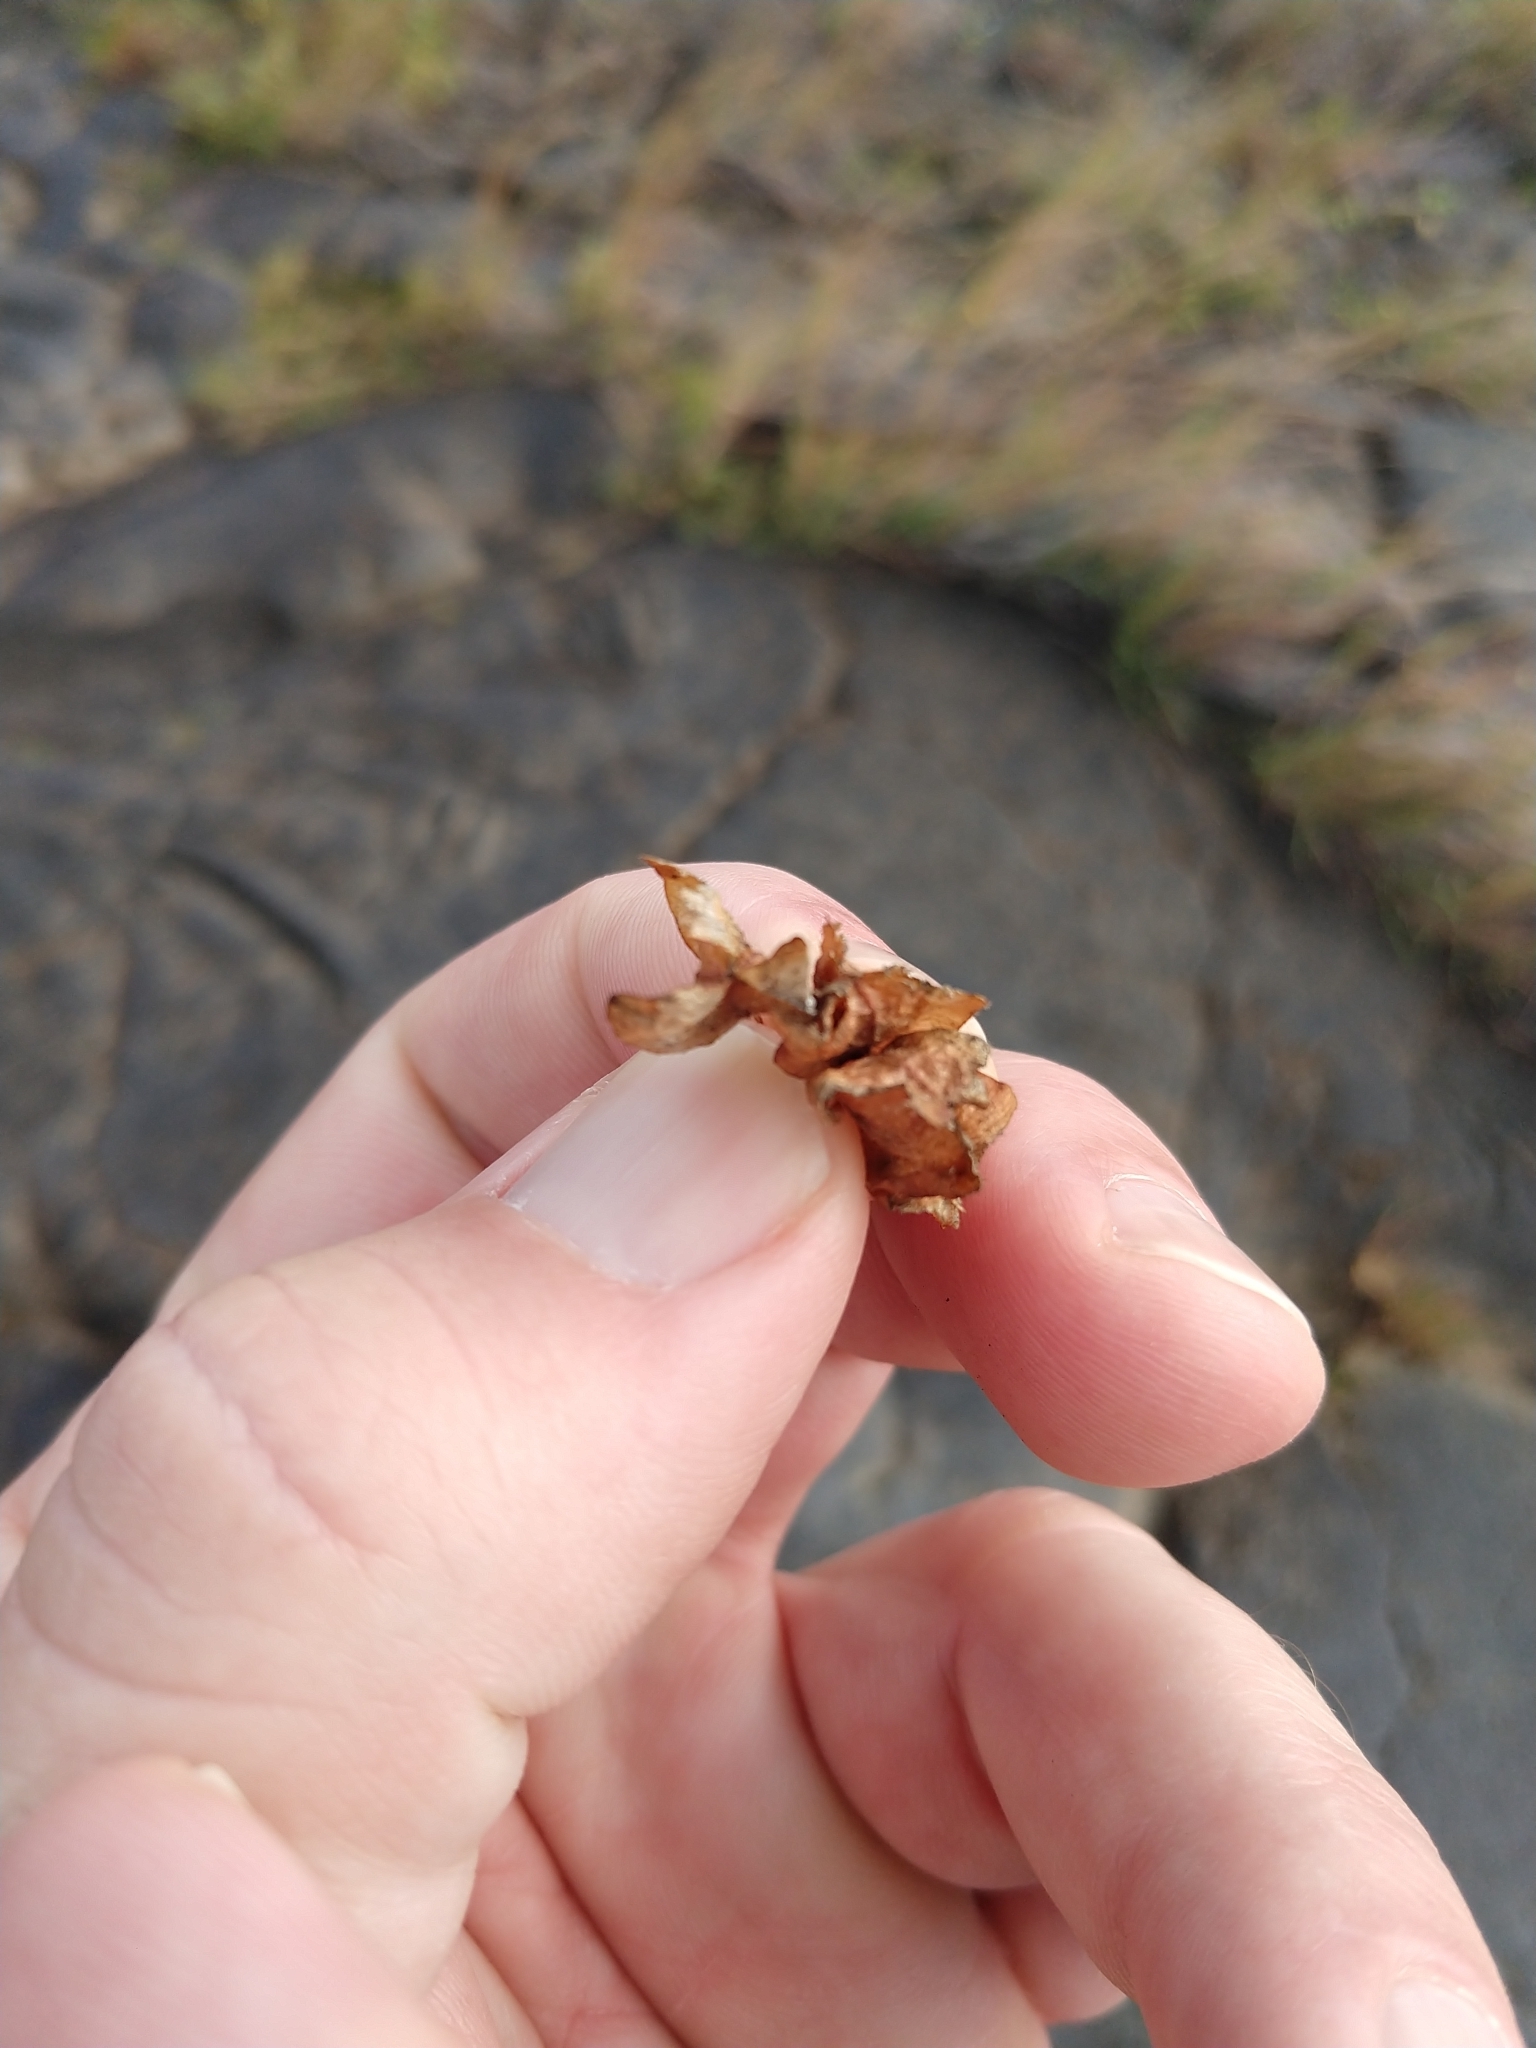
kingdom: Plantae
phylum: Tracheophyta
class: Magnoliopsida
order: Sapindales
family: Sapindaceae
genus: Dodonaea
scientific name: Dodonaea viscosa
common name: Hopbush
